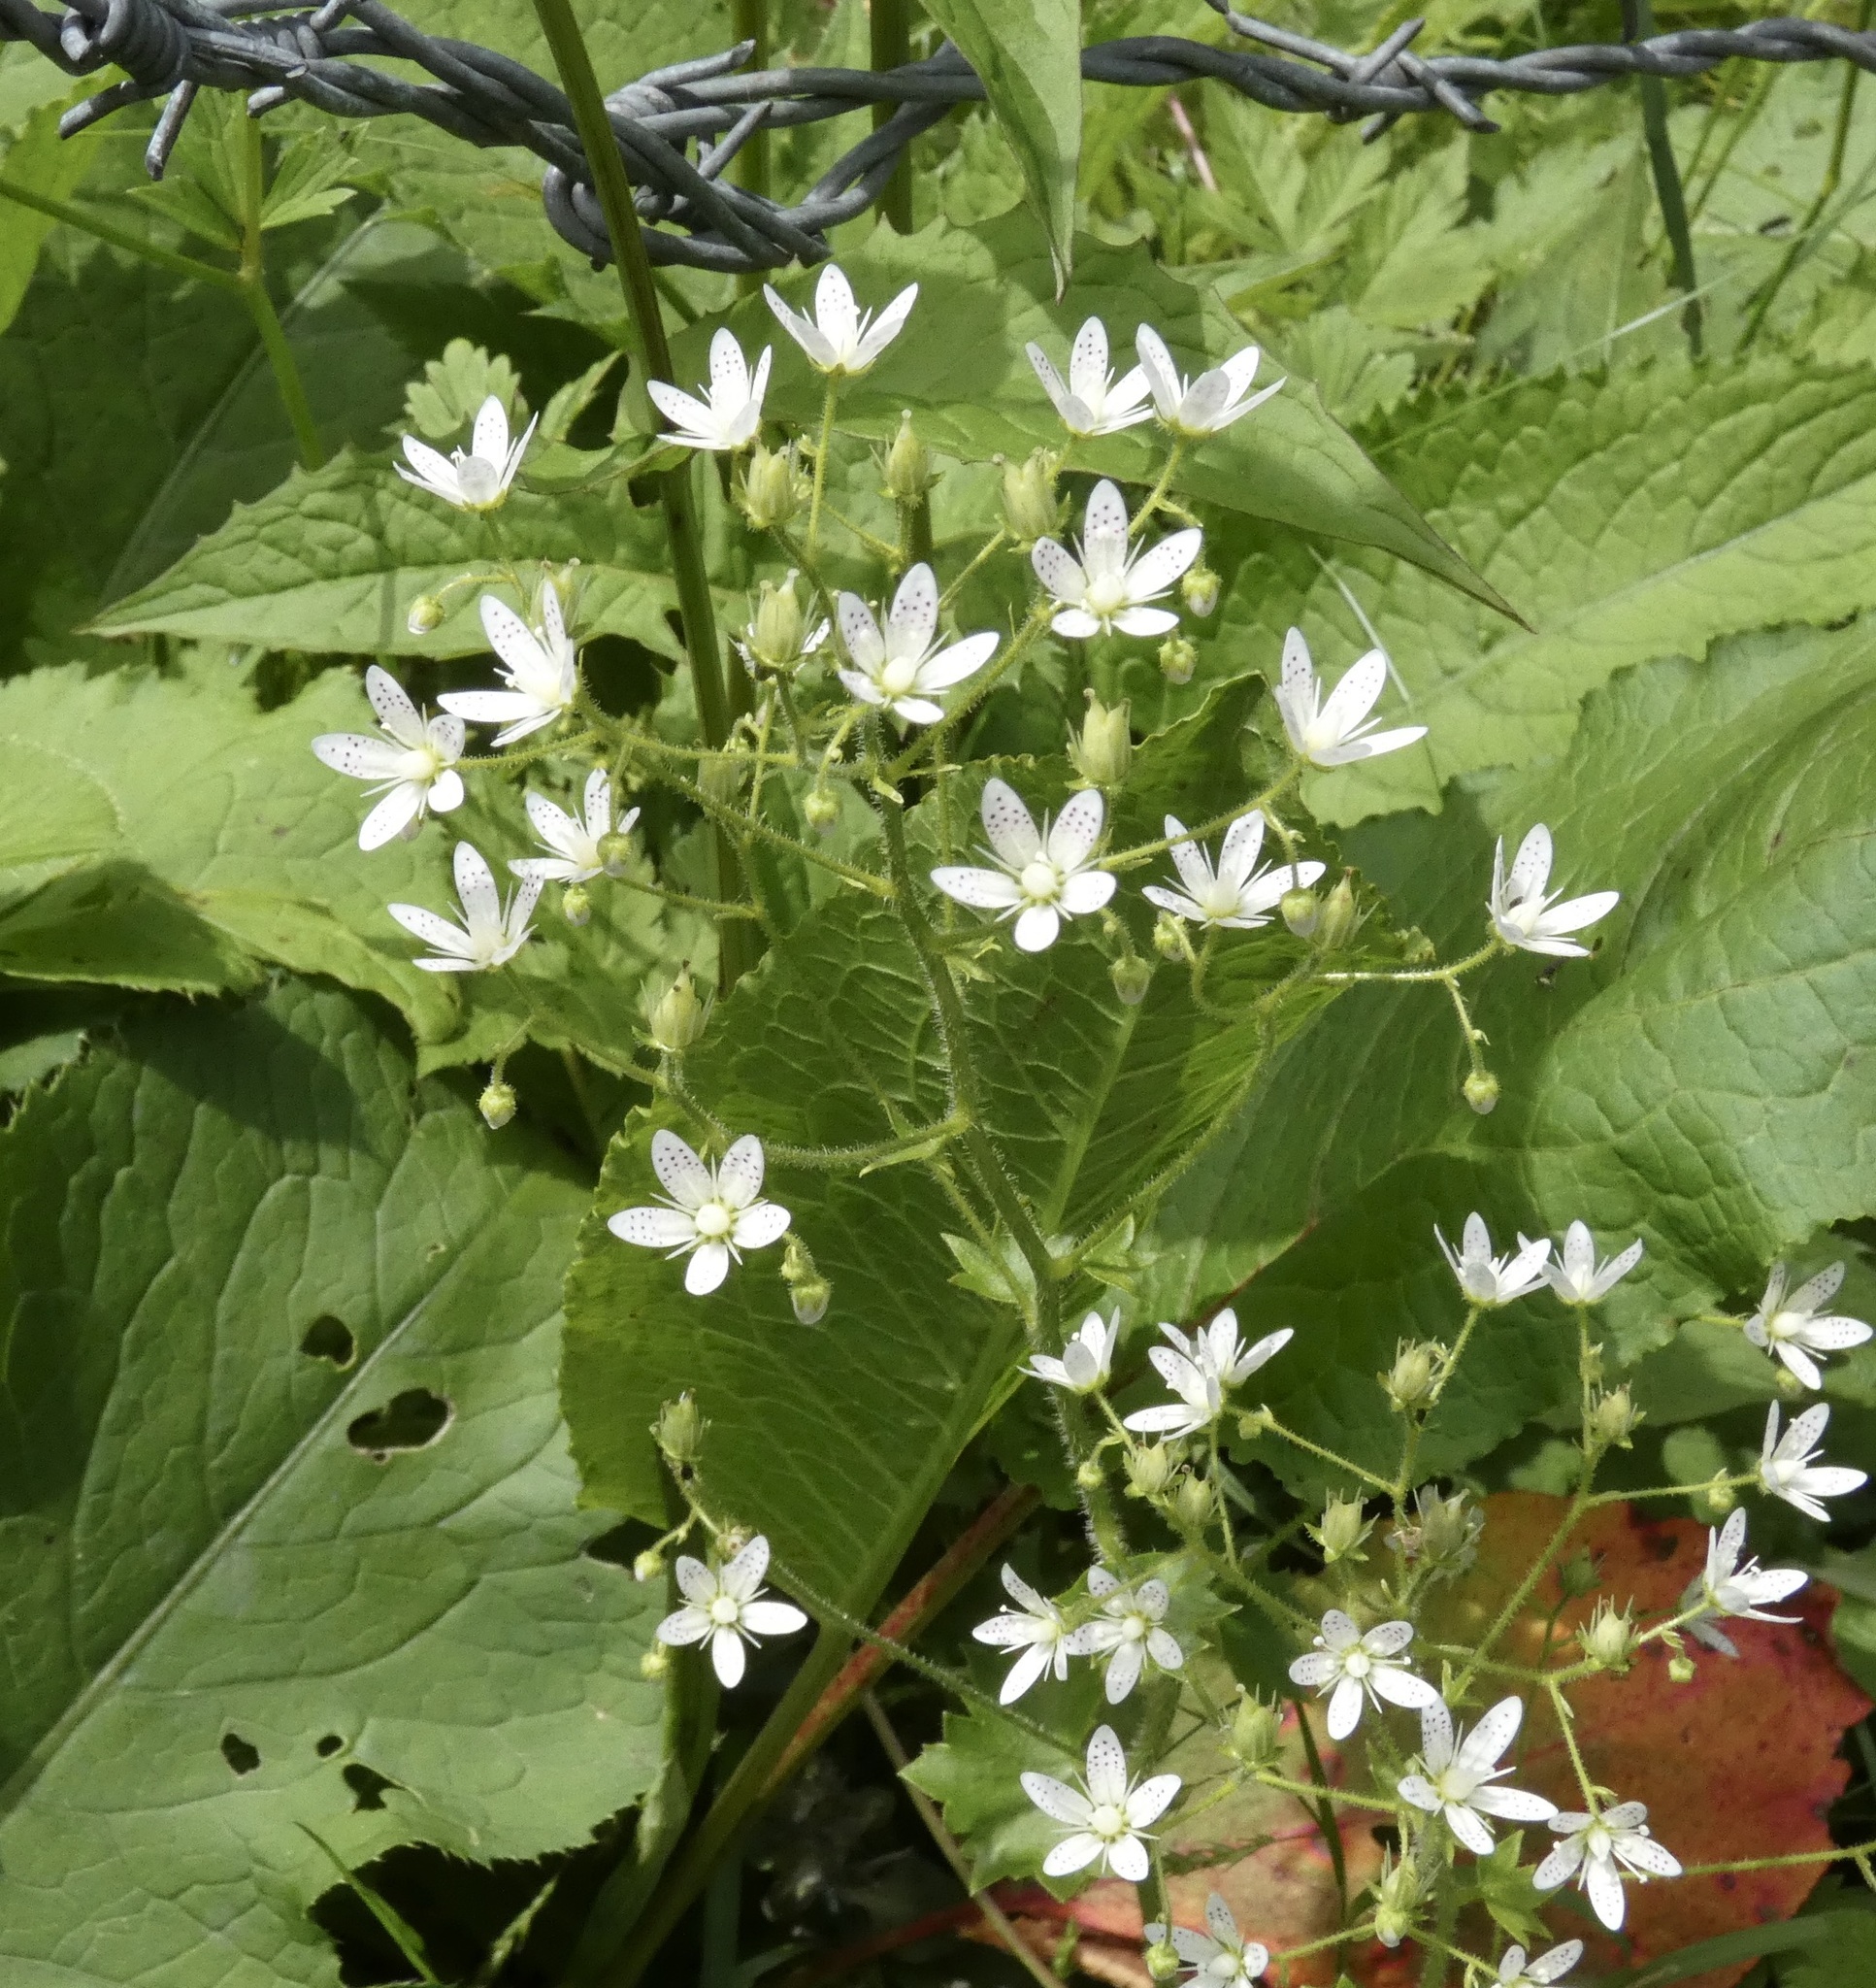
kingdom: Plantae
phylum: Tracheophyta
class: Magnoliopsida
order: Saxifragales
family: Saxifragaceae
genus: Saxifraga
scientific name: Saxifraga rotundifolia
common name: Round-leaved saxifrage
